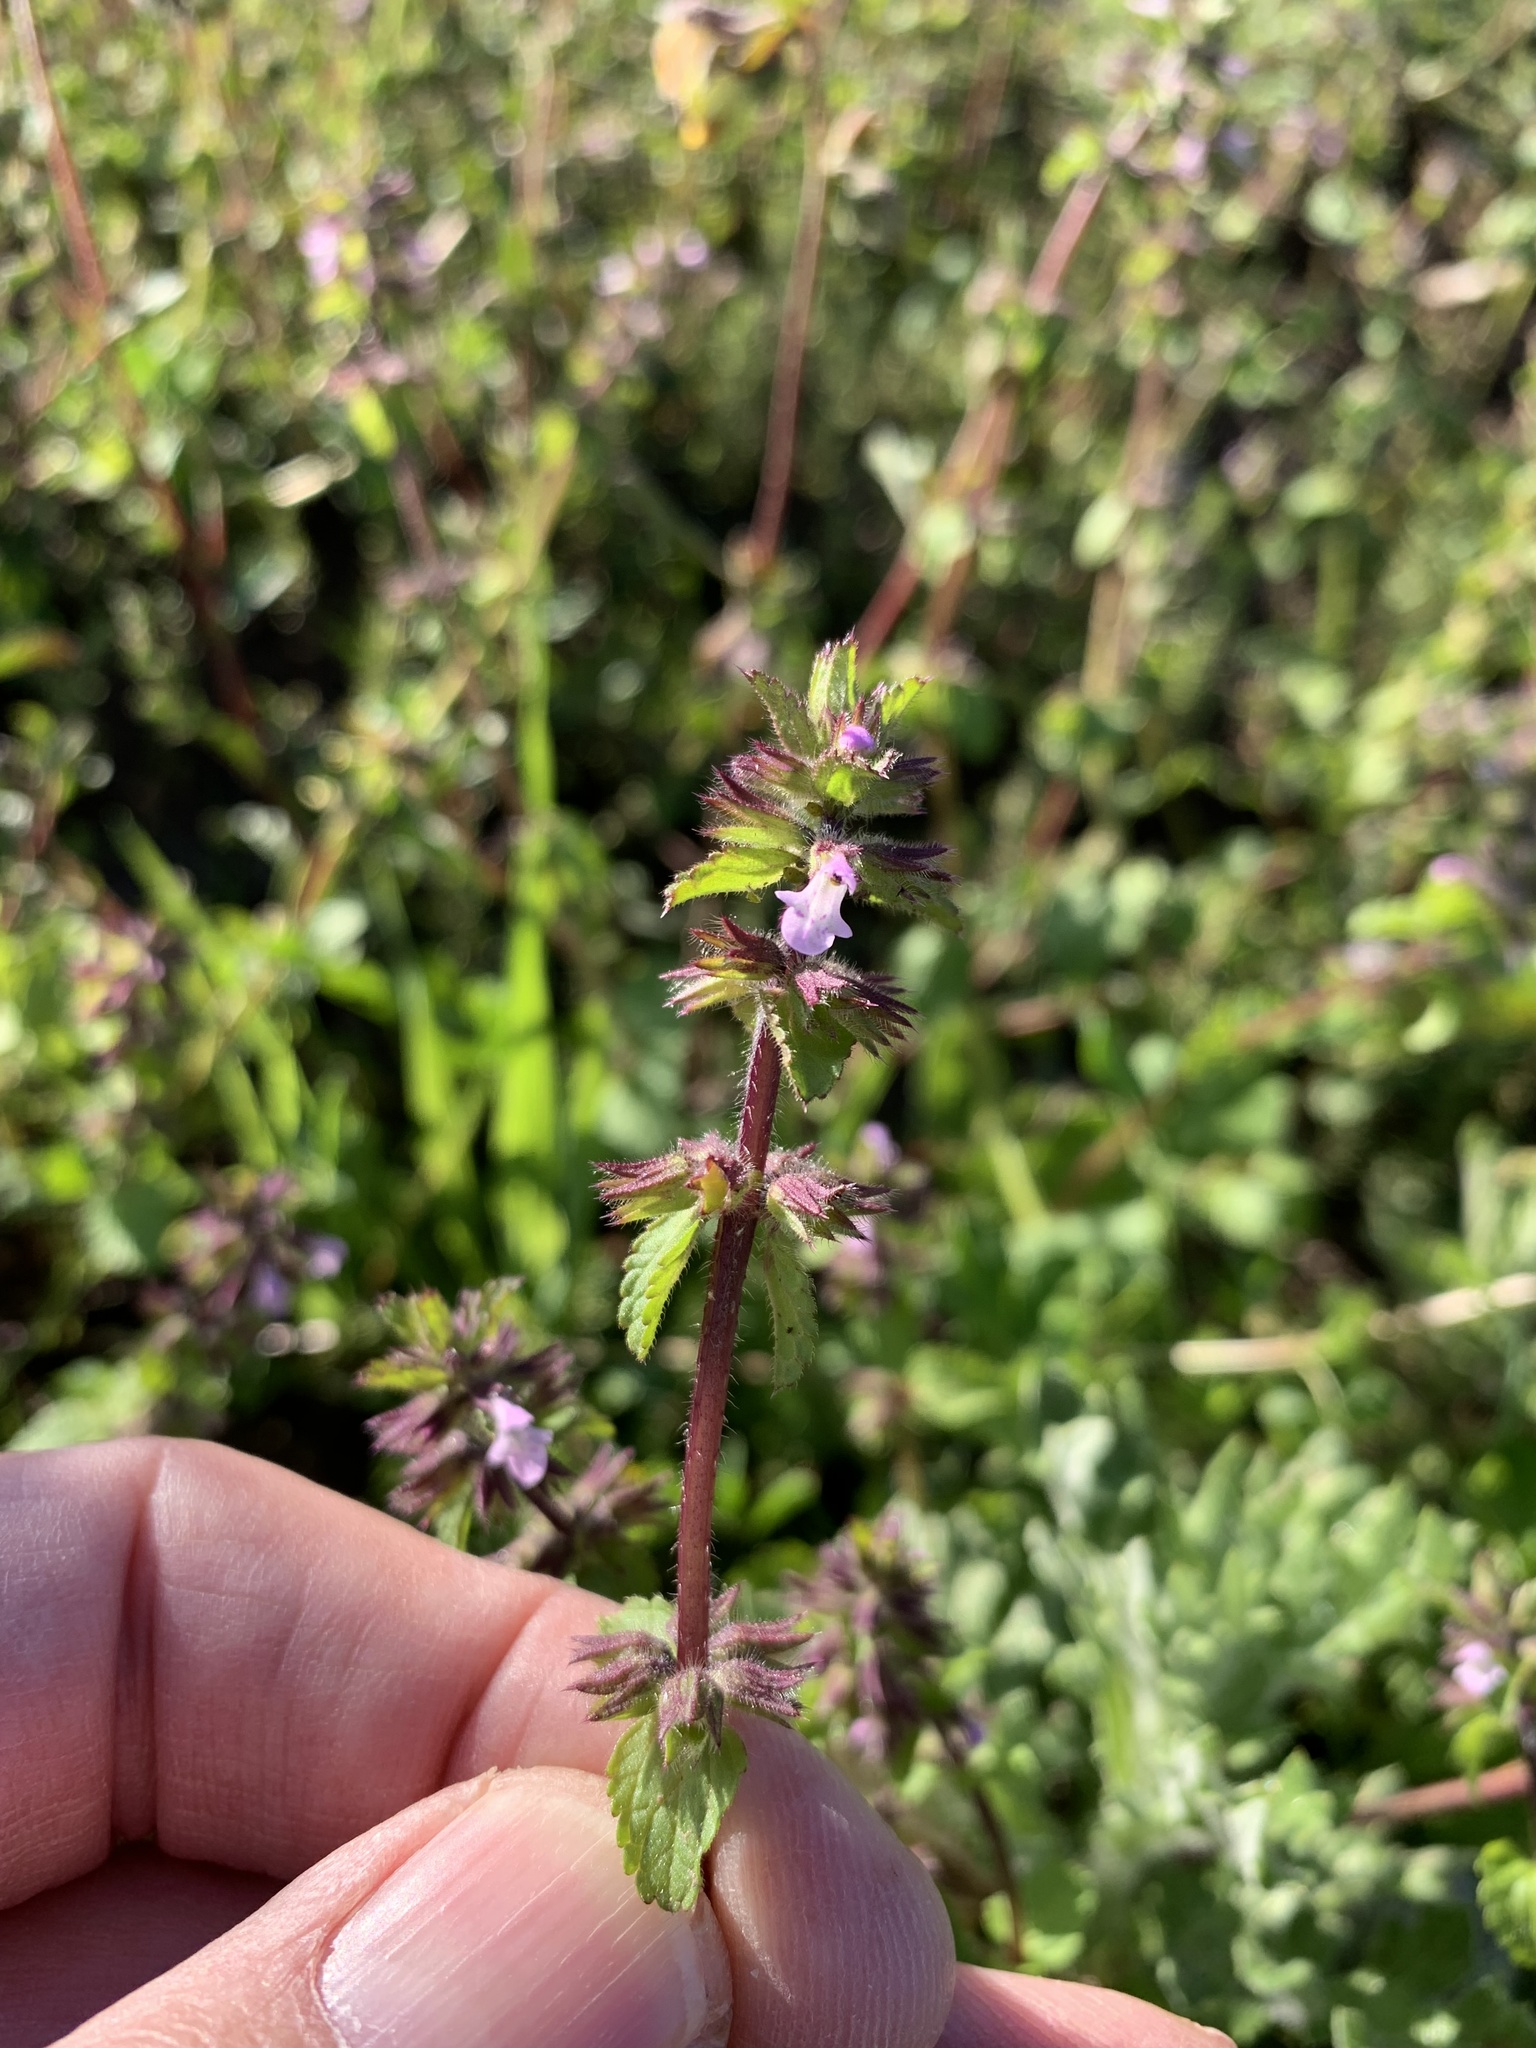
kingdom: Plantae
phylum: Tracheophyta
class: Magnoliopsida
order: Lamiales
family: Lamiaceae
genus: Stachys
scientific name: Stachys arvensis
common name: Field woundwort
